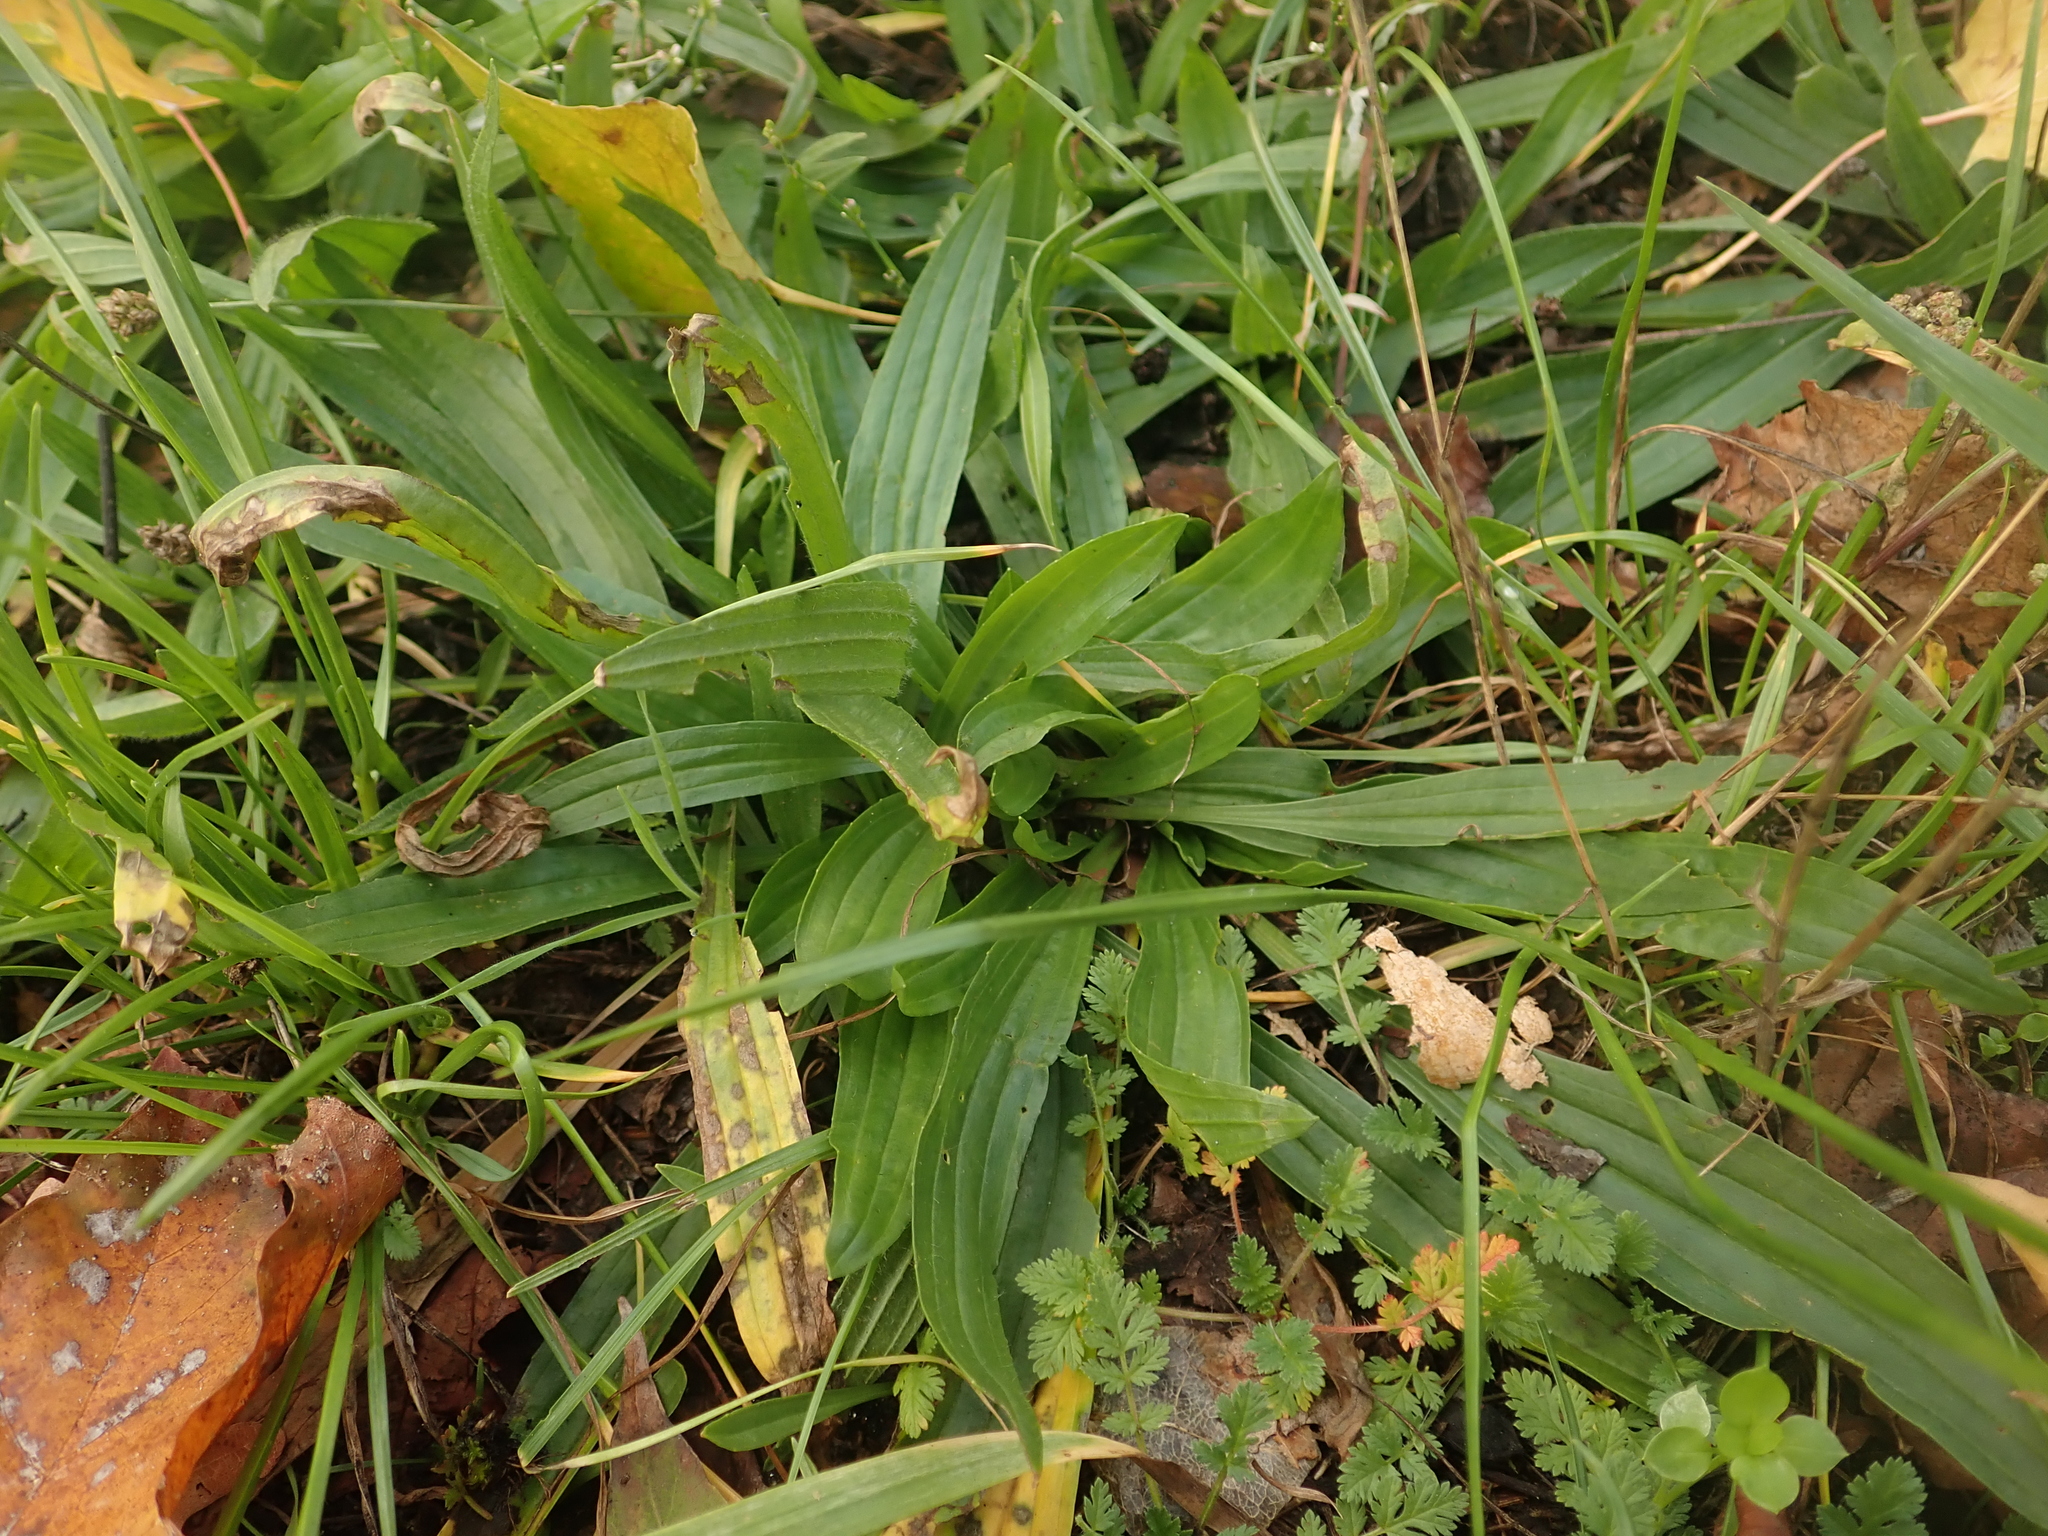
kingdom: Plantae
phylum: Tracheophyta
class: Magnoliopsida
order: Lamiales
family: Plantaginaceae
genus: Plantago
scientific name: Plantago lanceolata
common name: Ribwort plantain
